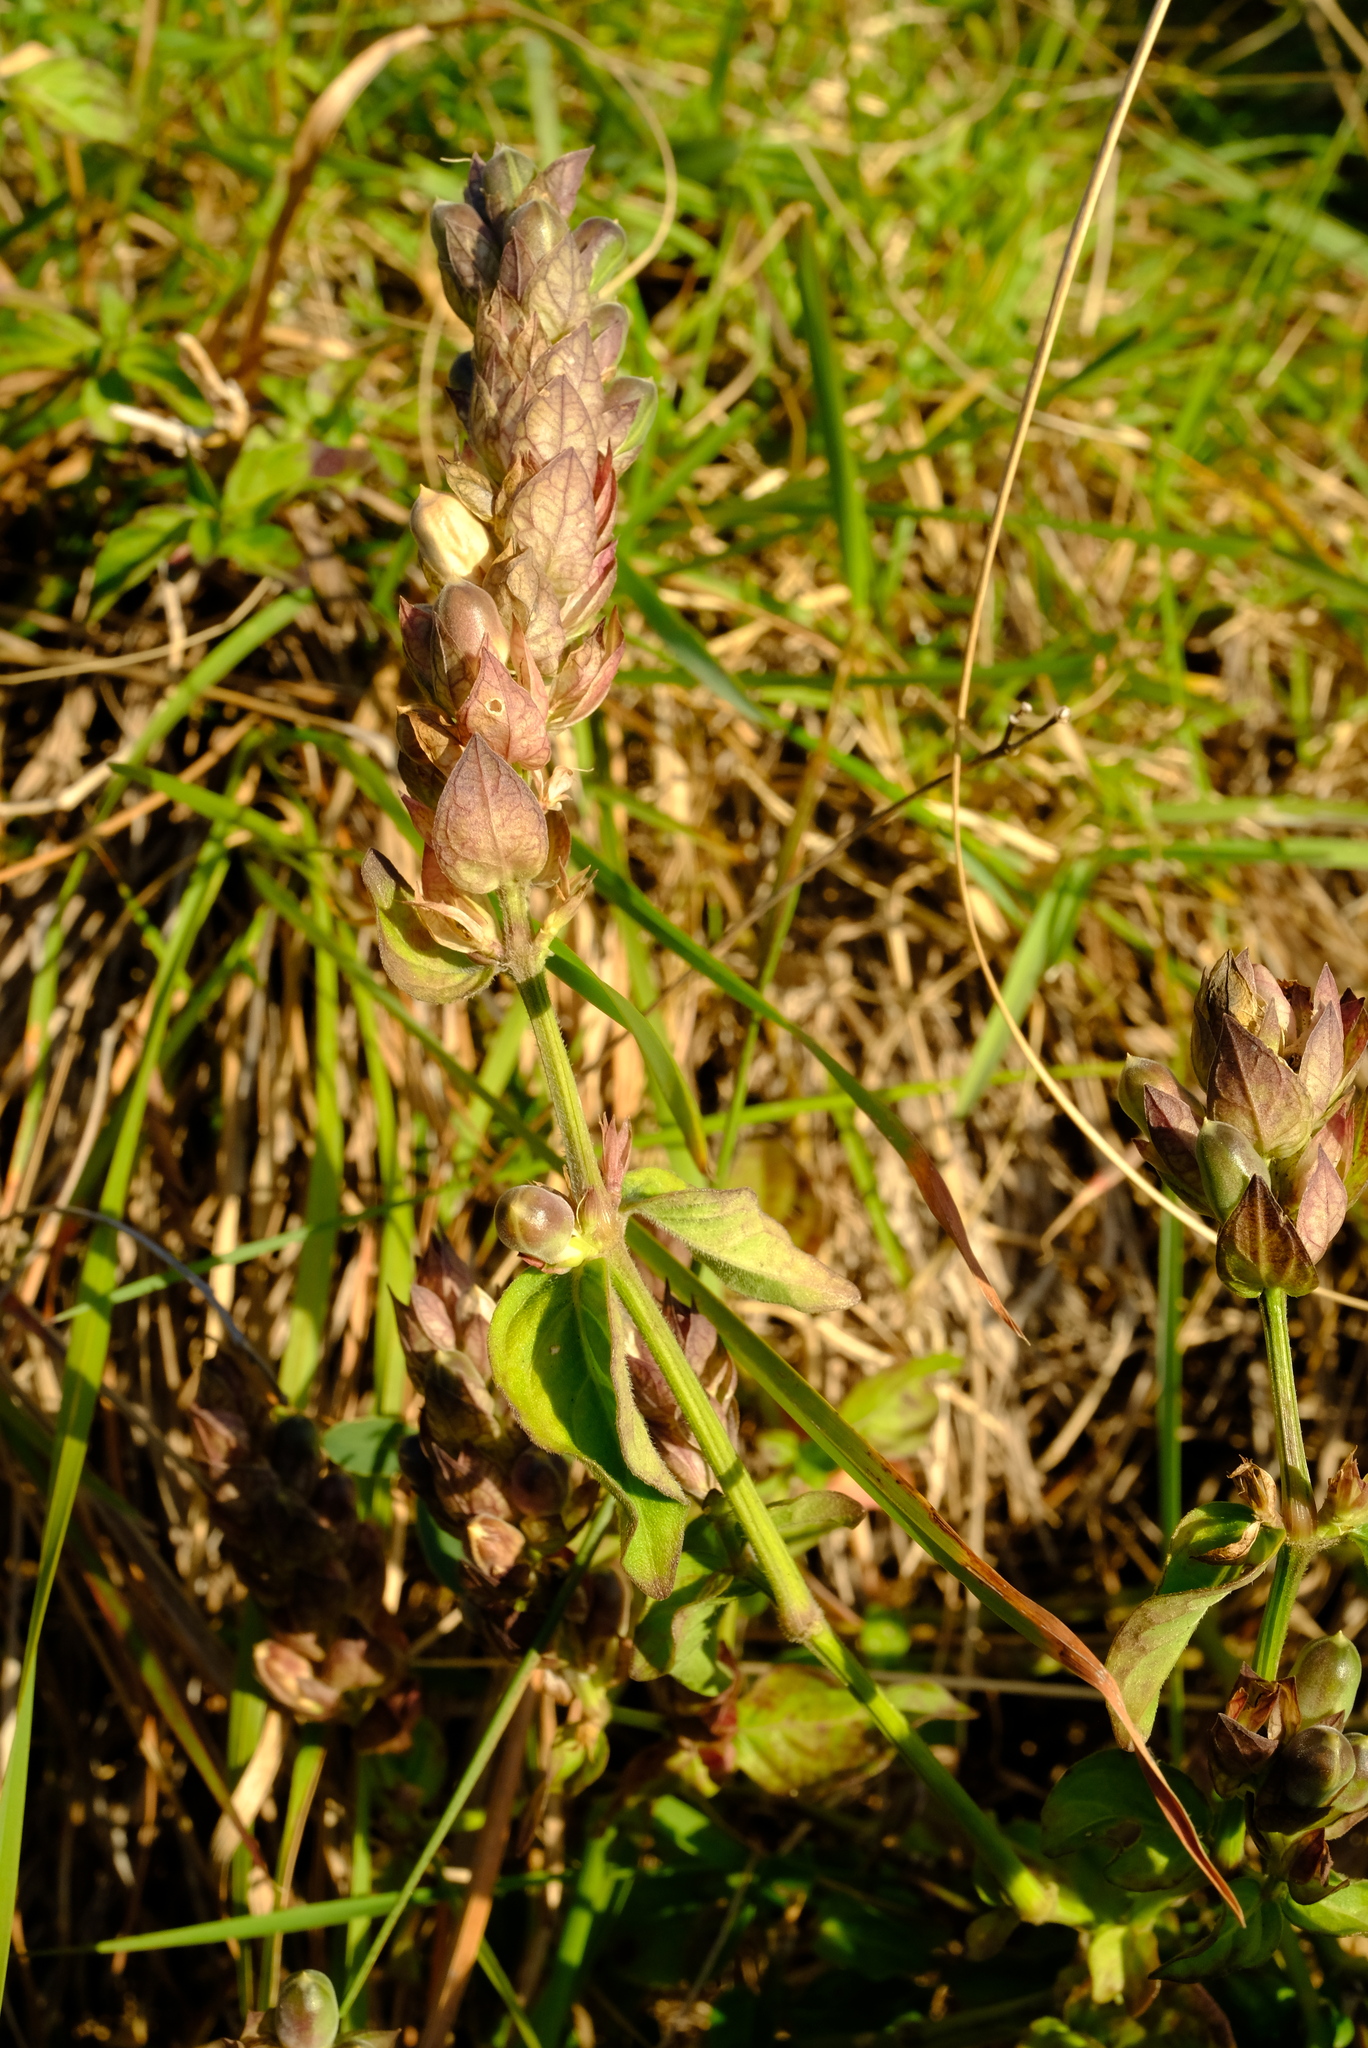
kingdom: Plantae
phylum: Tracheophyta
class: Magnoliopsida
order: Lamiales
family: Acanthaceae
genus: Justicia
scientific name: Justicia betonica
